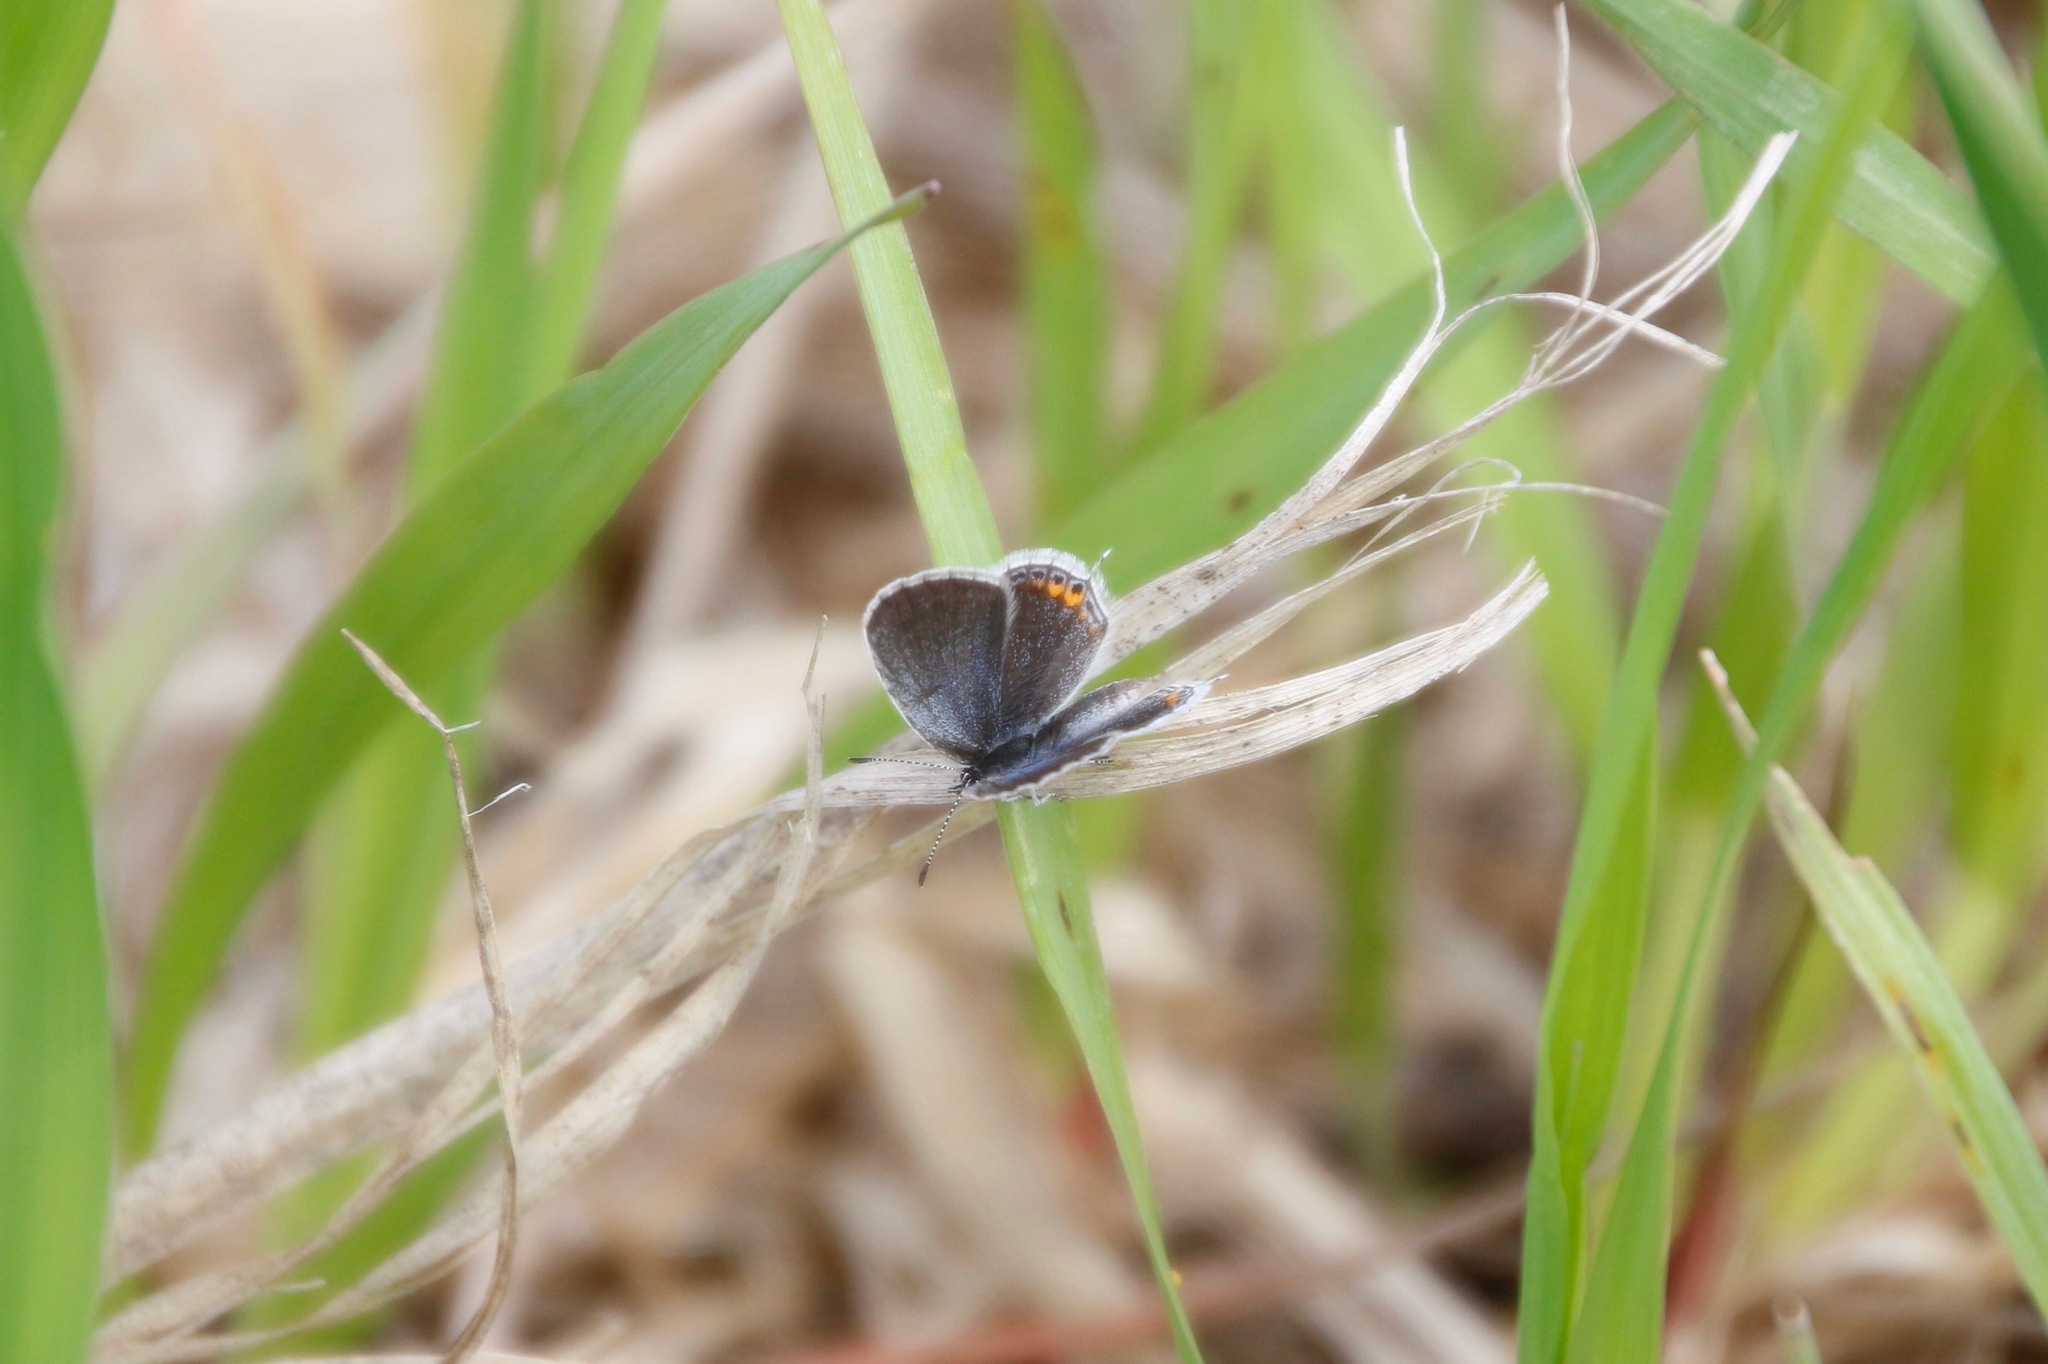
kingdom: Animalia
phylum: Arthropoda
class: Insecta
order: Lepidoptera
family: Lycaenidae
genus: Elkalyce
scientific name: Elkalyce comyntas
